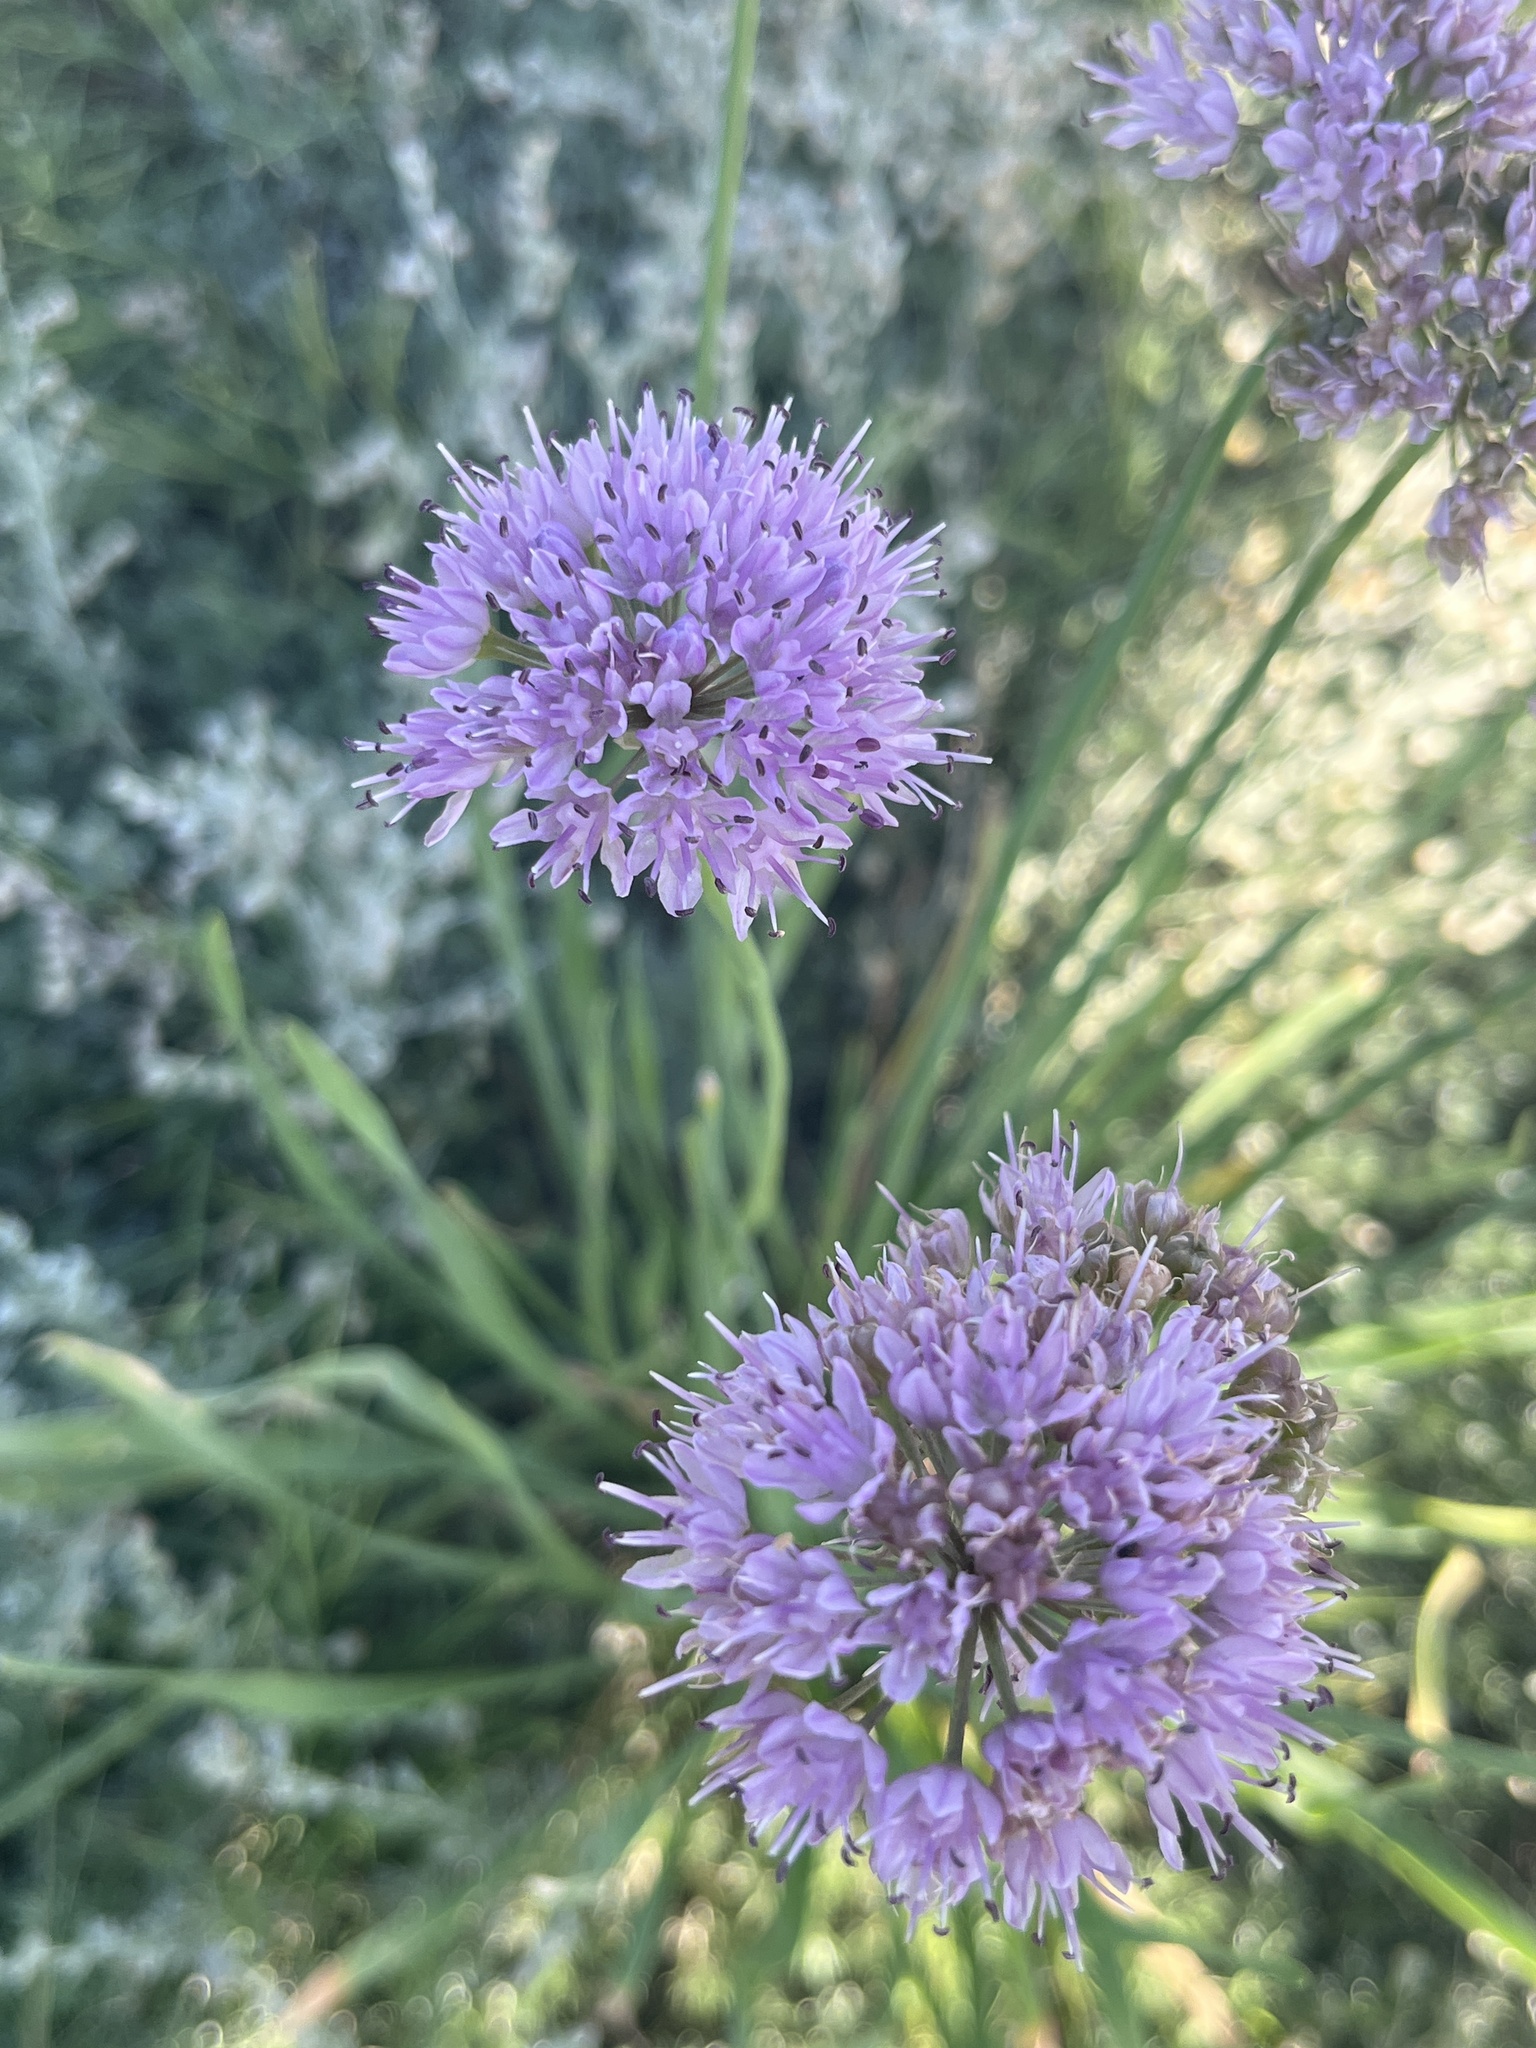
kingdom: Plantae
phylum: Tracheophyta
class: Liliopsida
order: Asparagales
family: Amaryllidaceae
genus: Allium
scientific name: Allium senescens
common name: German garlic
